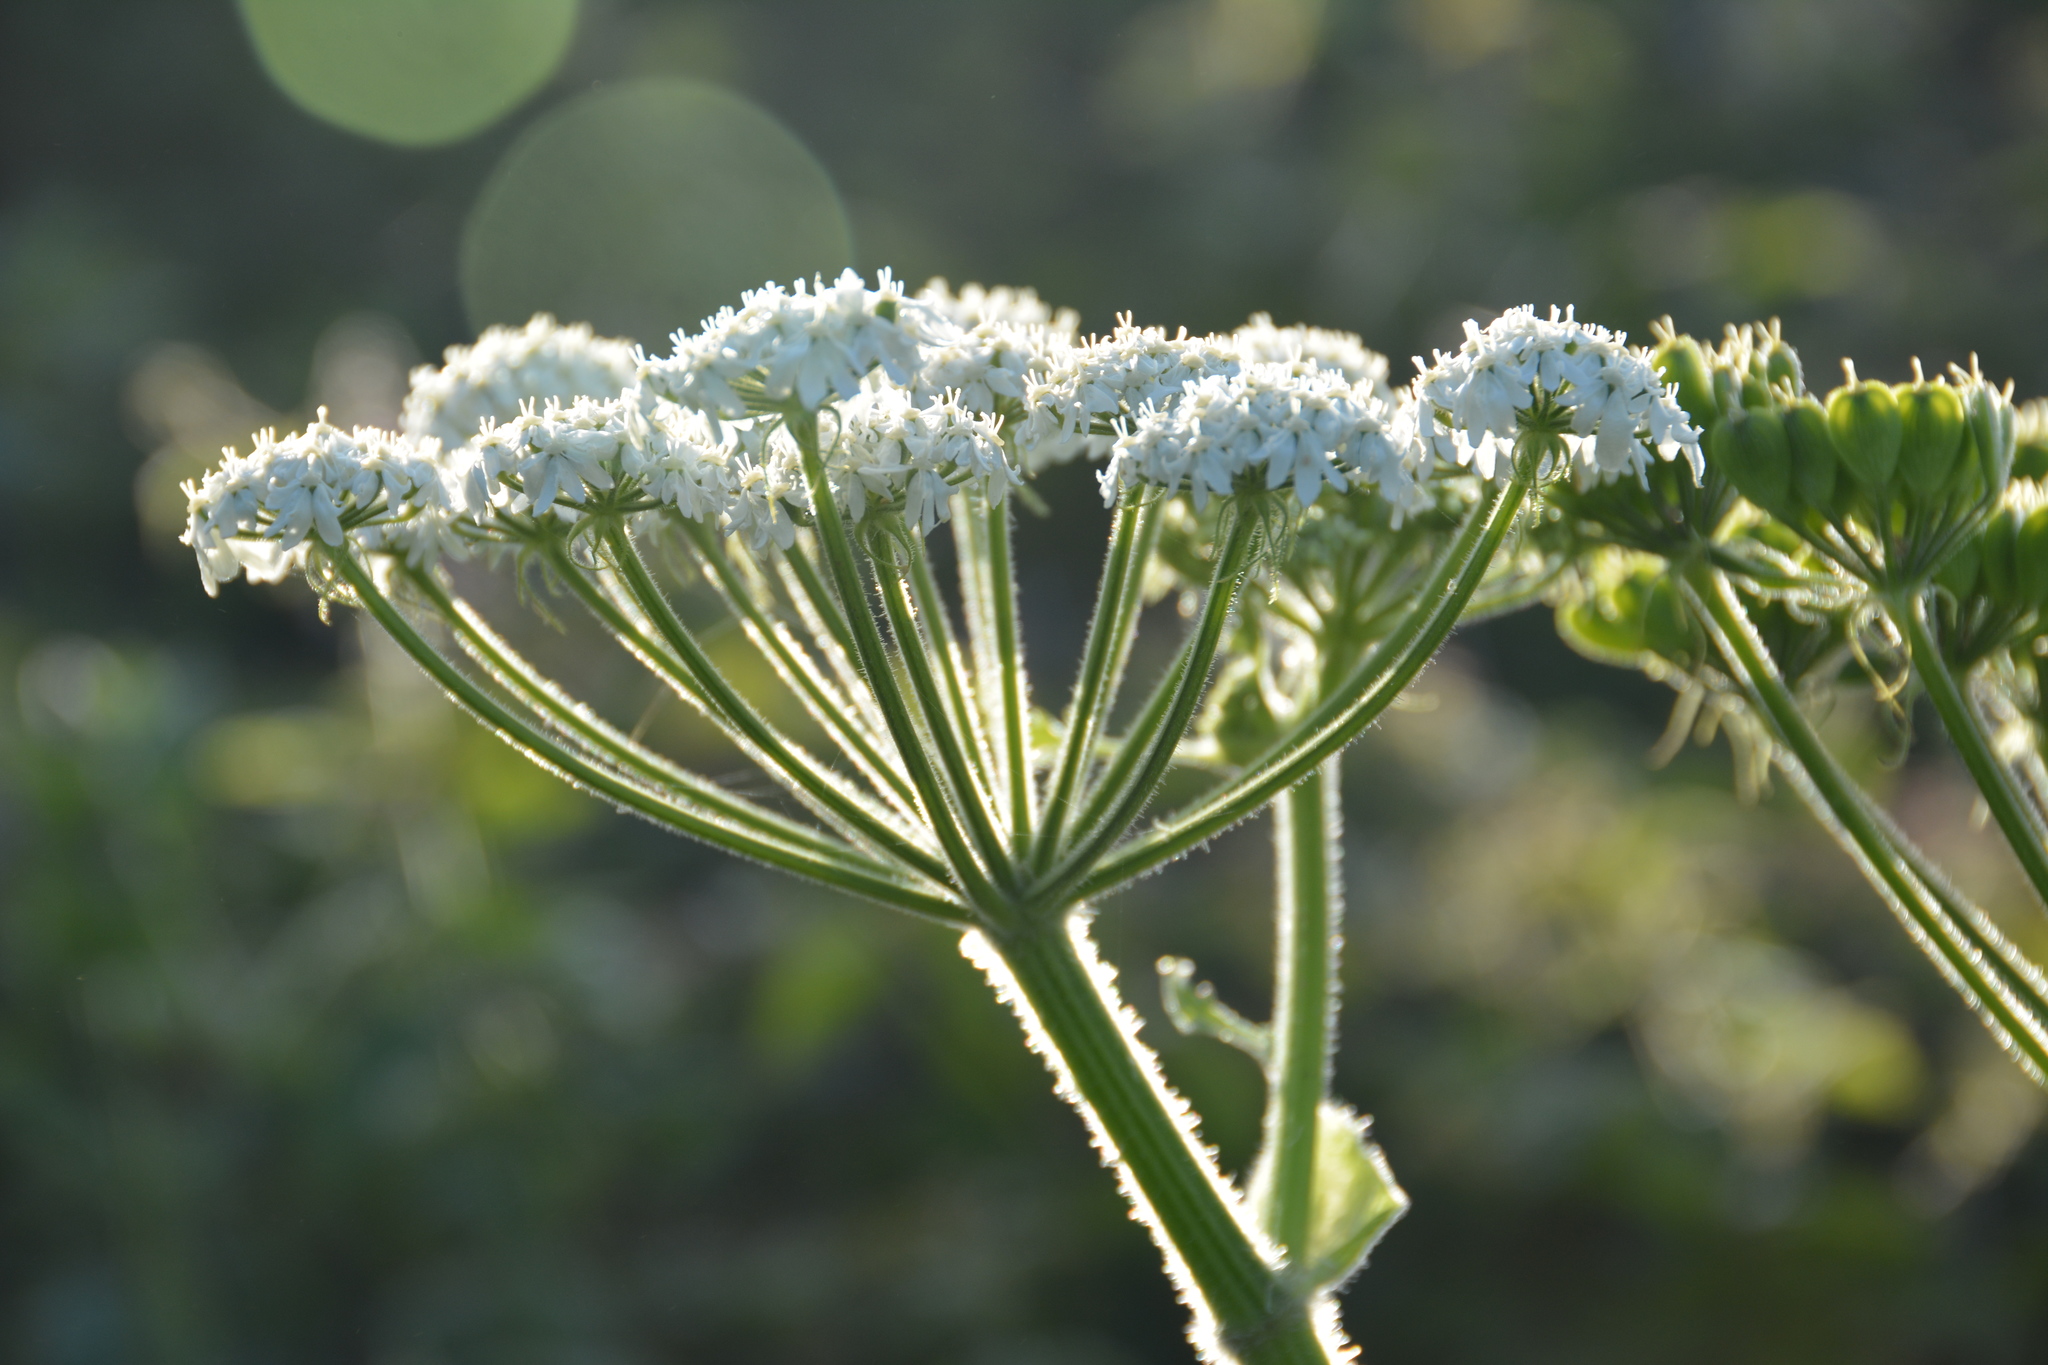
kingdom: Plantae
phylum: Tracheophyta
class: Magnoliopsida
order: Apiales
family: Apiaceae
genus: Heracleum
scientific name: Heracleum maximum
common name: American cow parsnip
